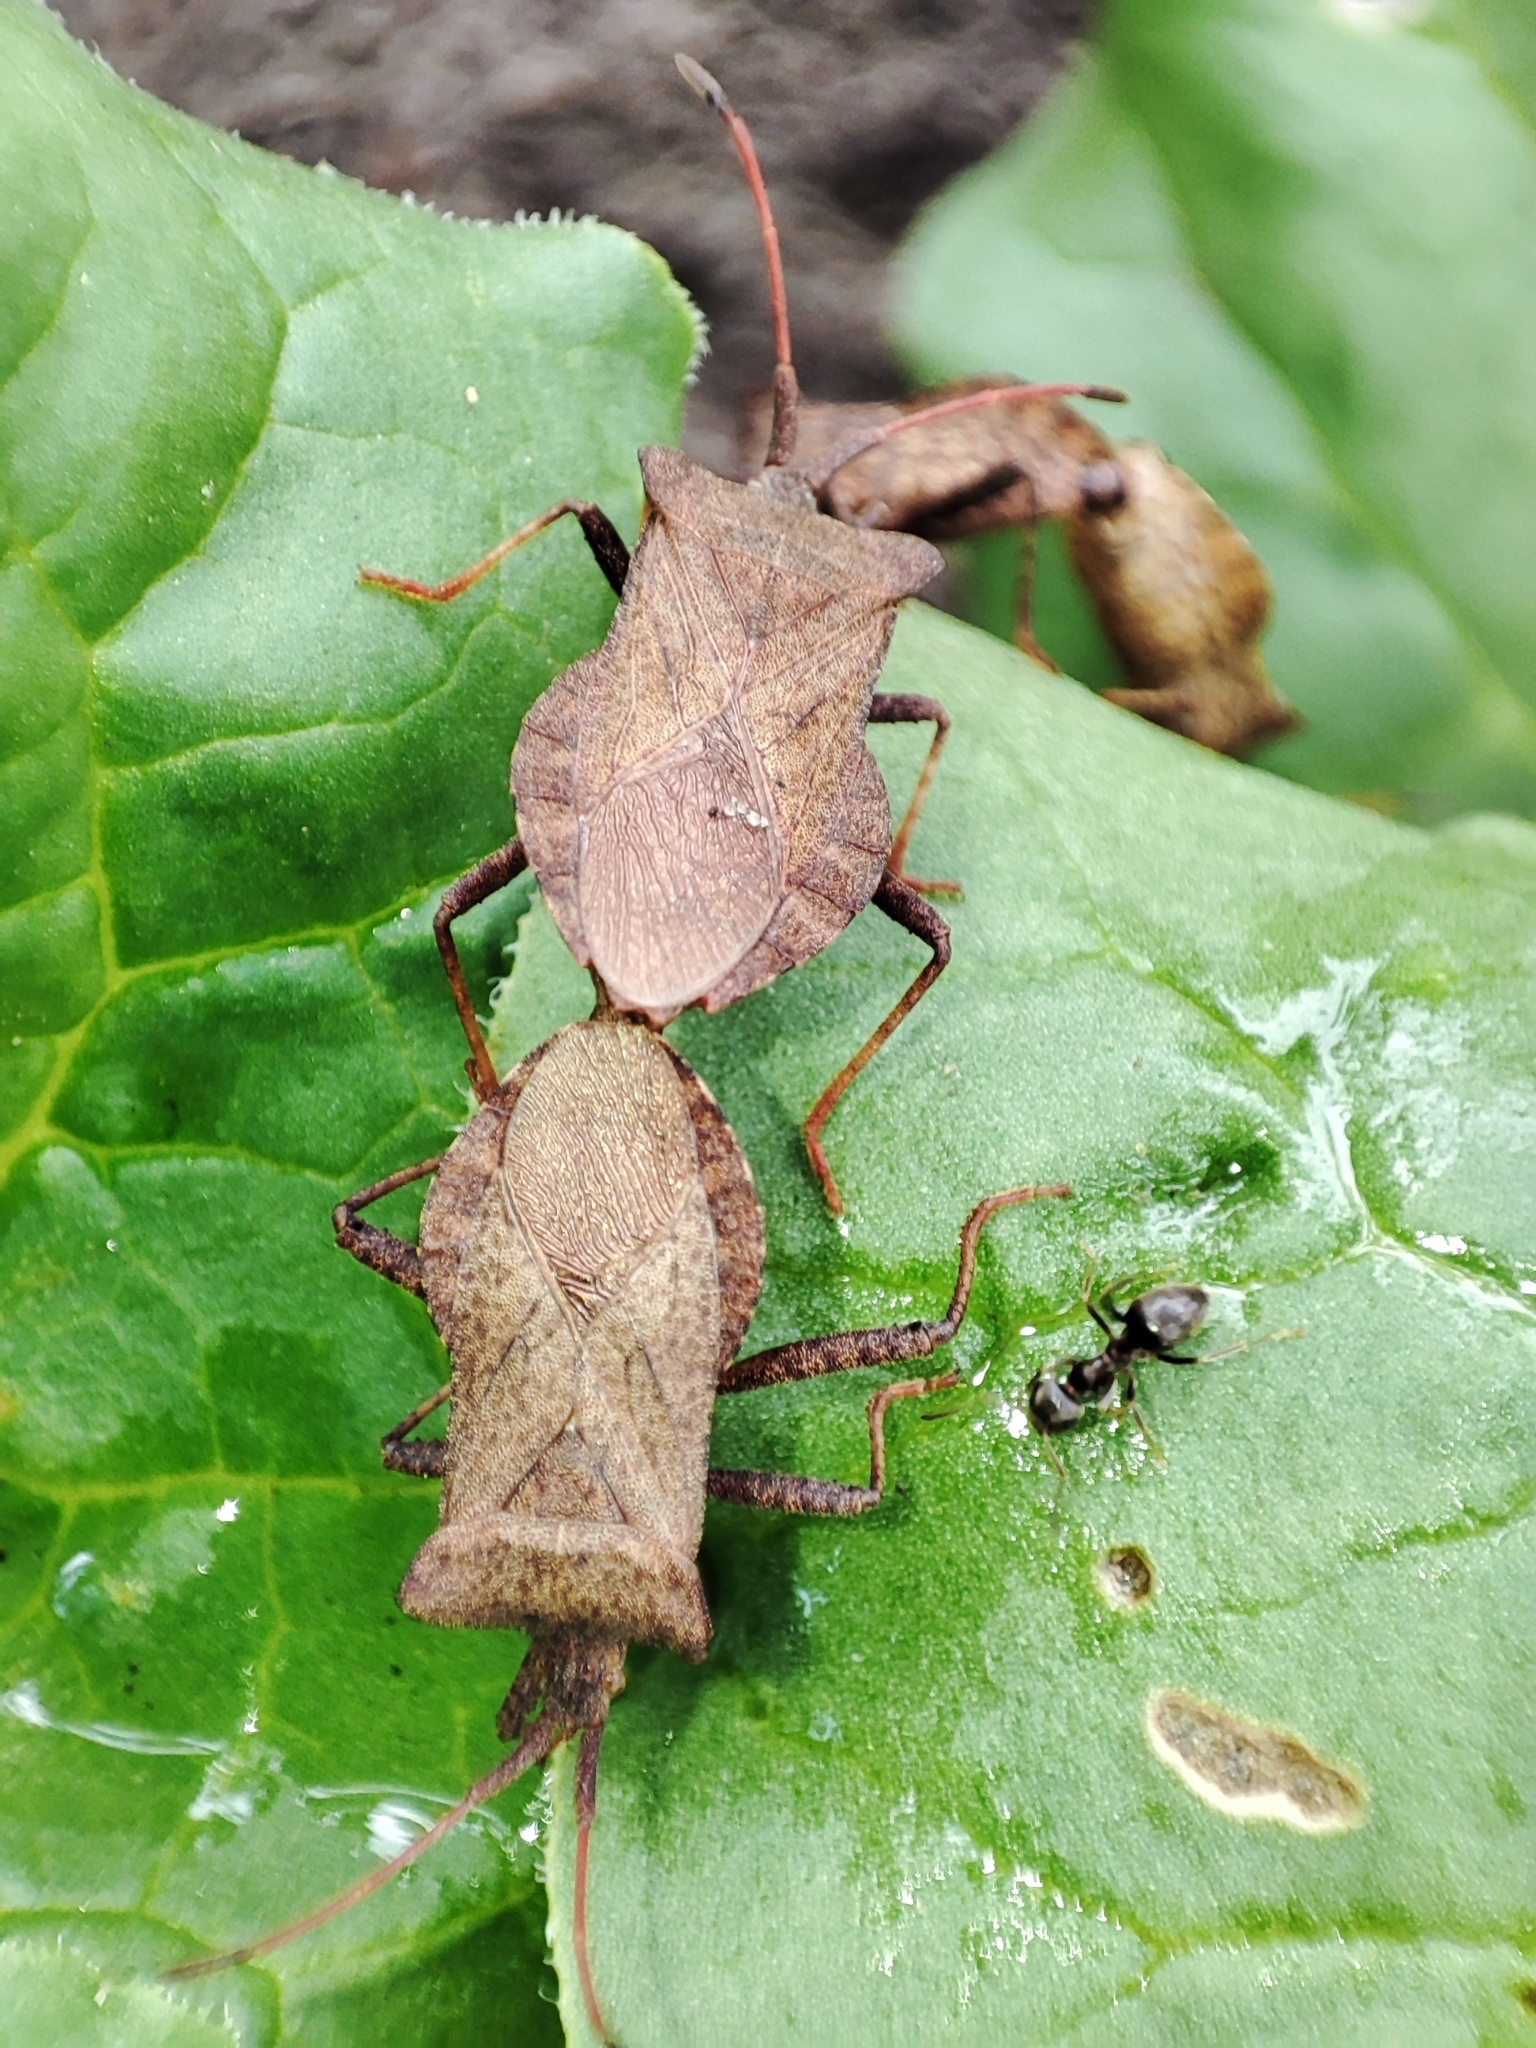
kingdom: Animalia
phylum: Arthropoda
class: Insecta
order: Hemiptera
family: Coreidae
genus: Coreus
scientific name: Coreus marginatus
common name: Dock bug
